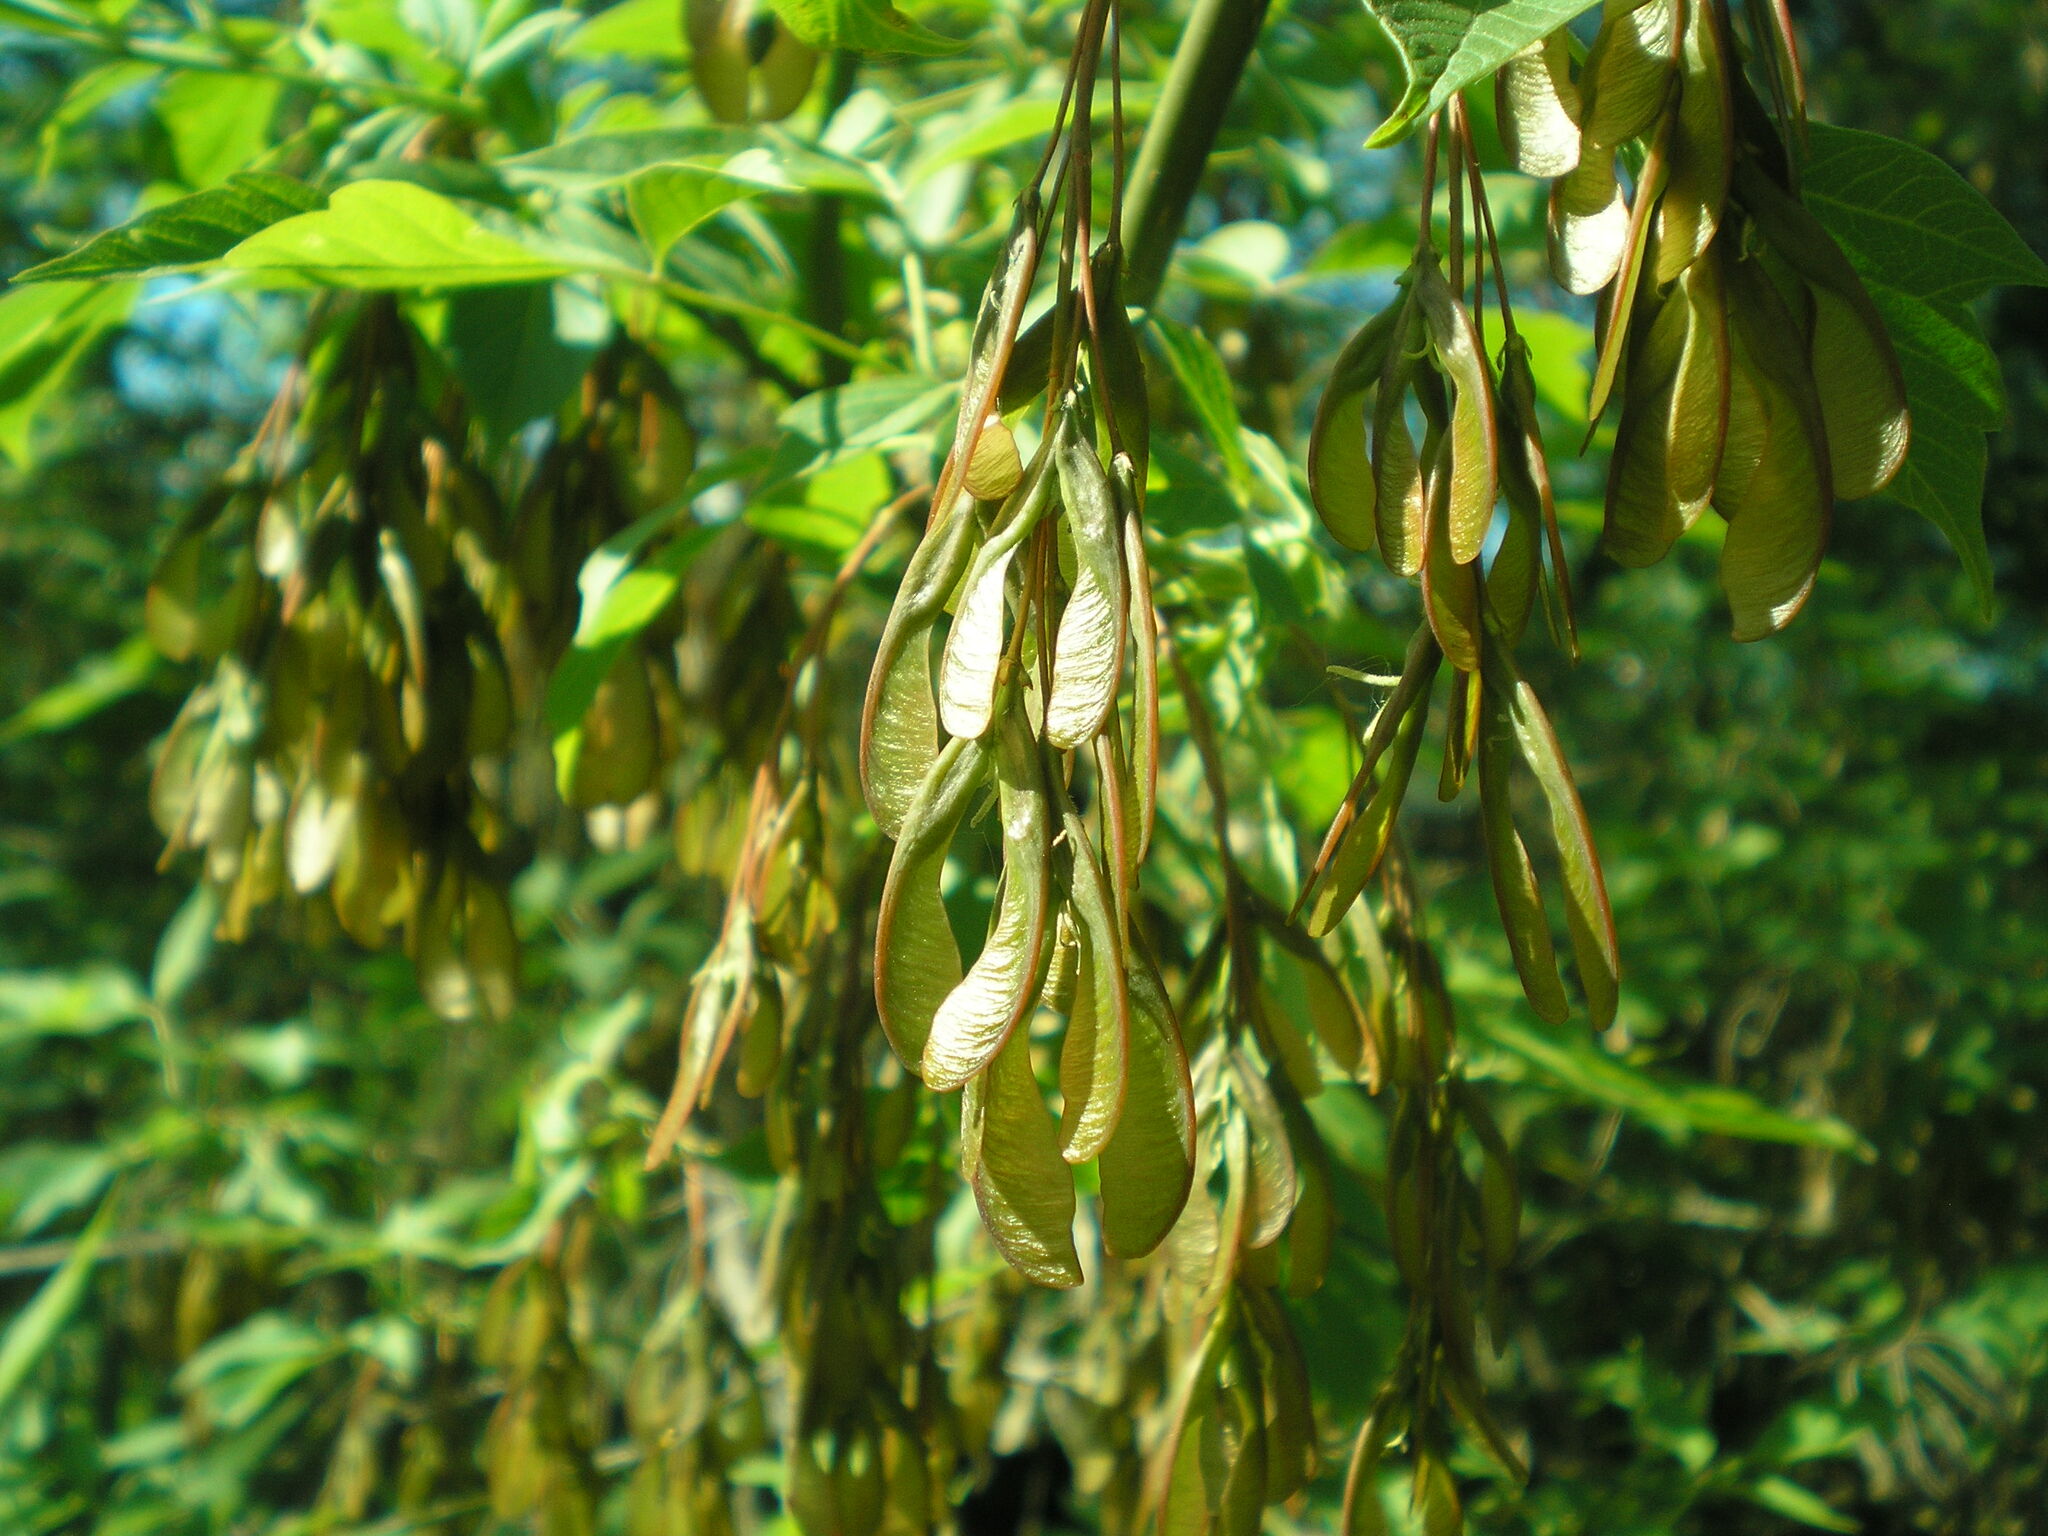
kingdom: Plantae
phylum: Tracheophyta
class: Magnoliopsida
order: Sapindales
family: Sapindaceae
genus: Acer
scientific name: Acer negundo
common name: Ashleaf maple
